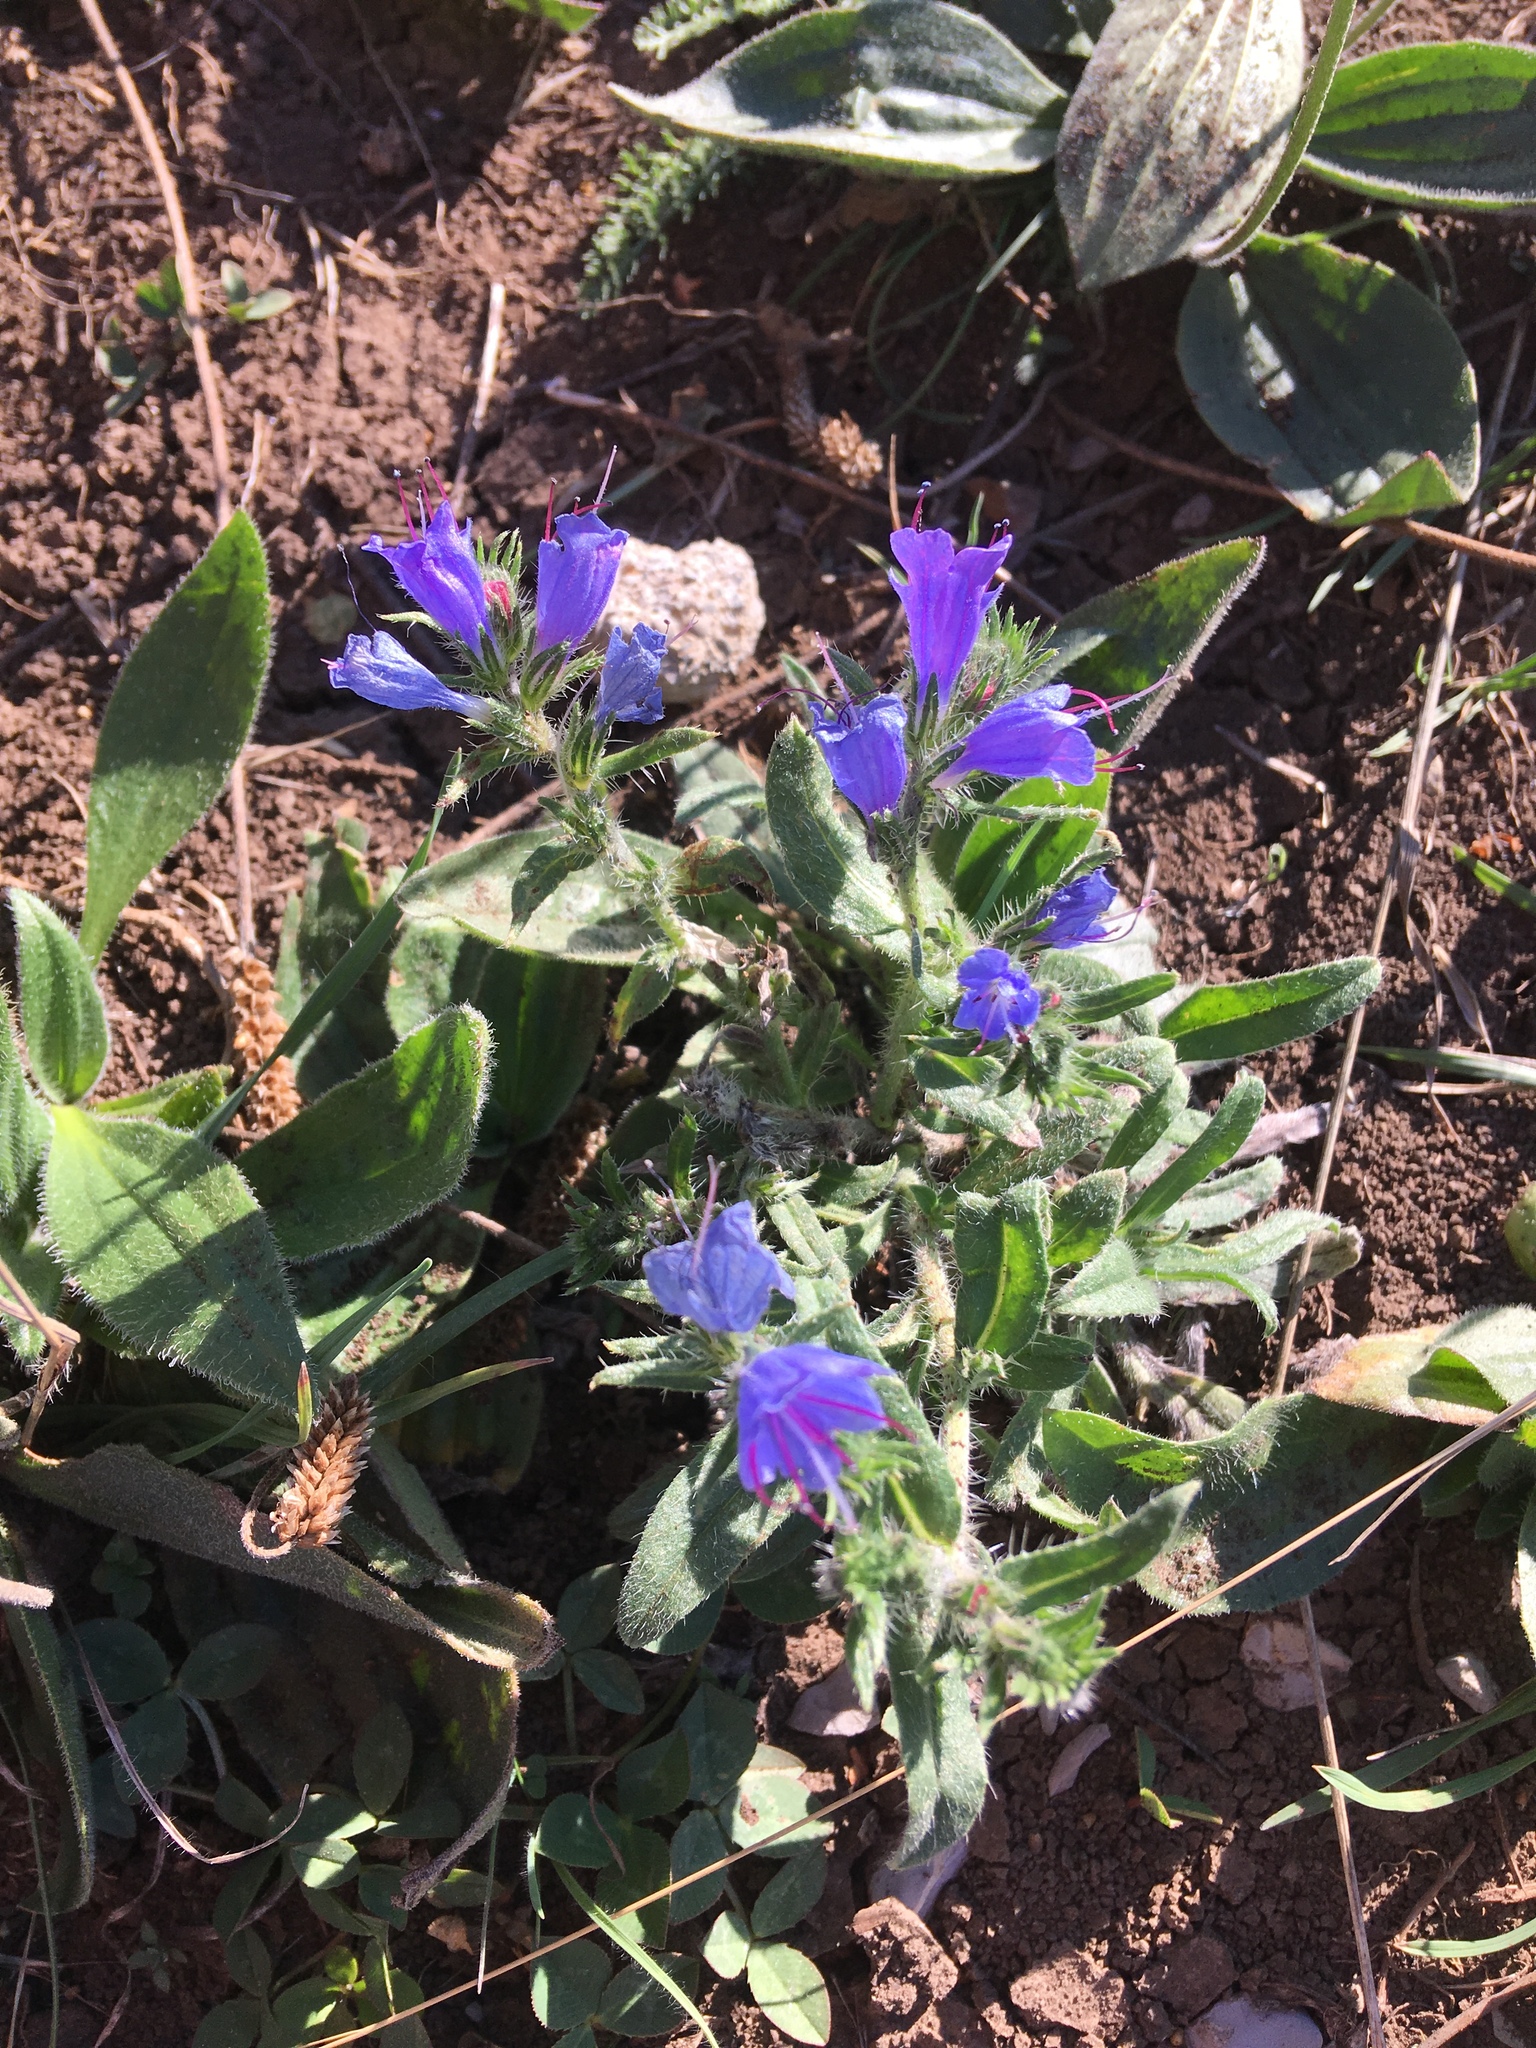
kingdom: Plantae
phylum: Tracheophyta
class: Magnoliopsida
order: Boraginales
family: Boraginaceae
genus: Echium
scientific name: Echium vulgare
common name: Common viper's bugloss
